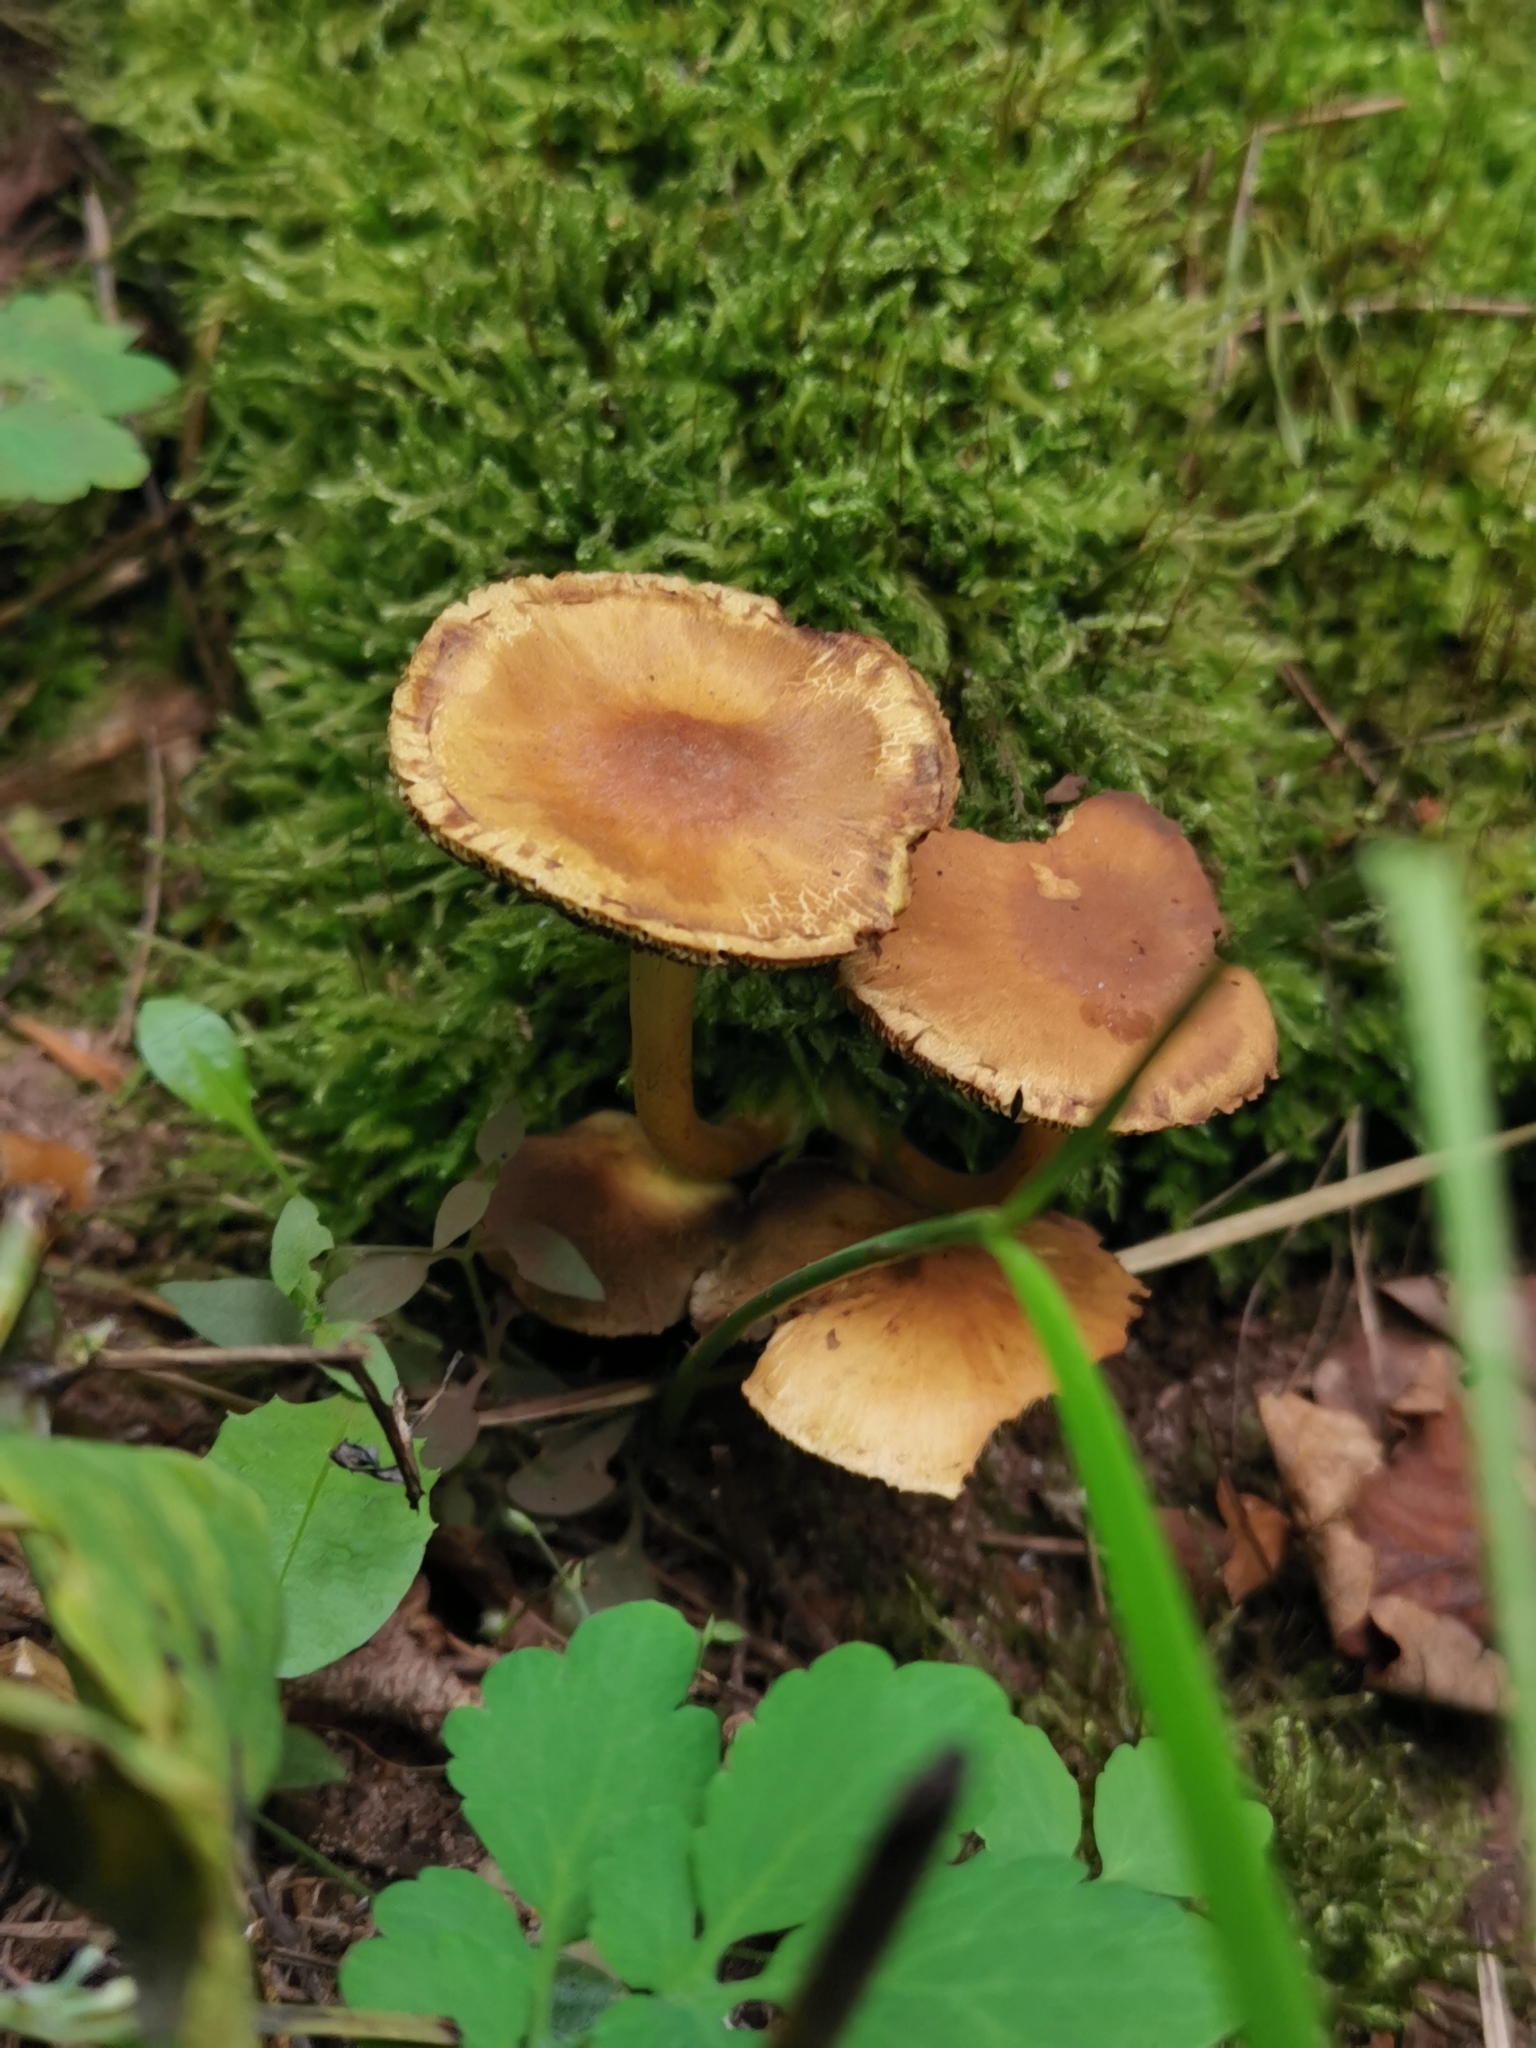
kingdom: Fungi
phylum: Basidiomycota
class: Agaricomycetes
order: Agaricales
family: Strophariaceae
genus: Hypholoma
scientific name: Hypholoma fasciculare
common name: Sulphur tuft
